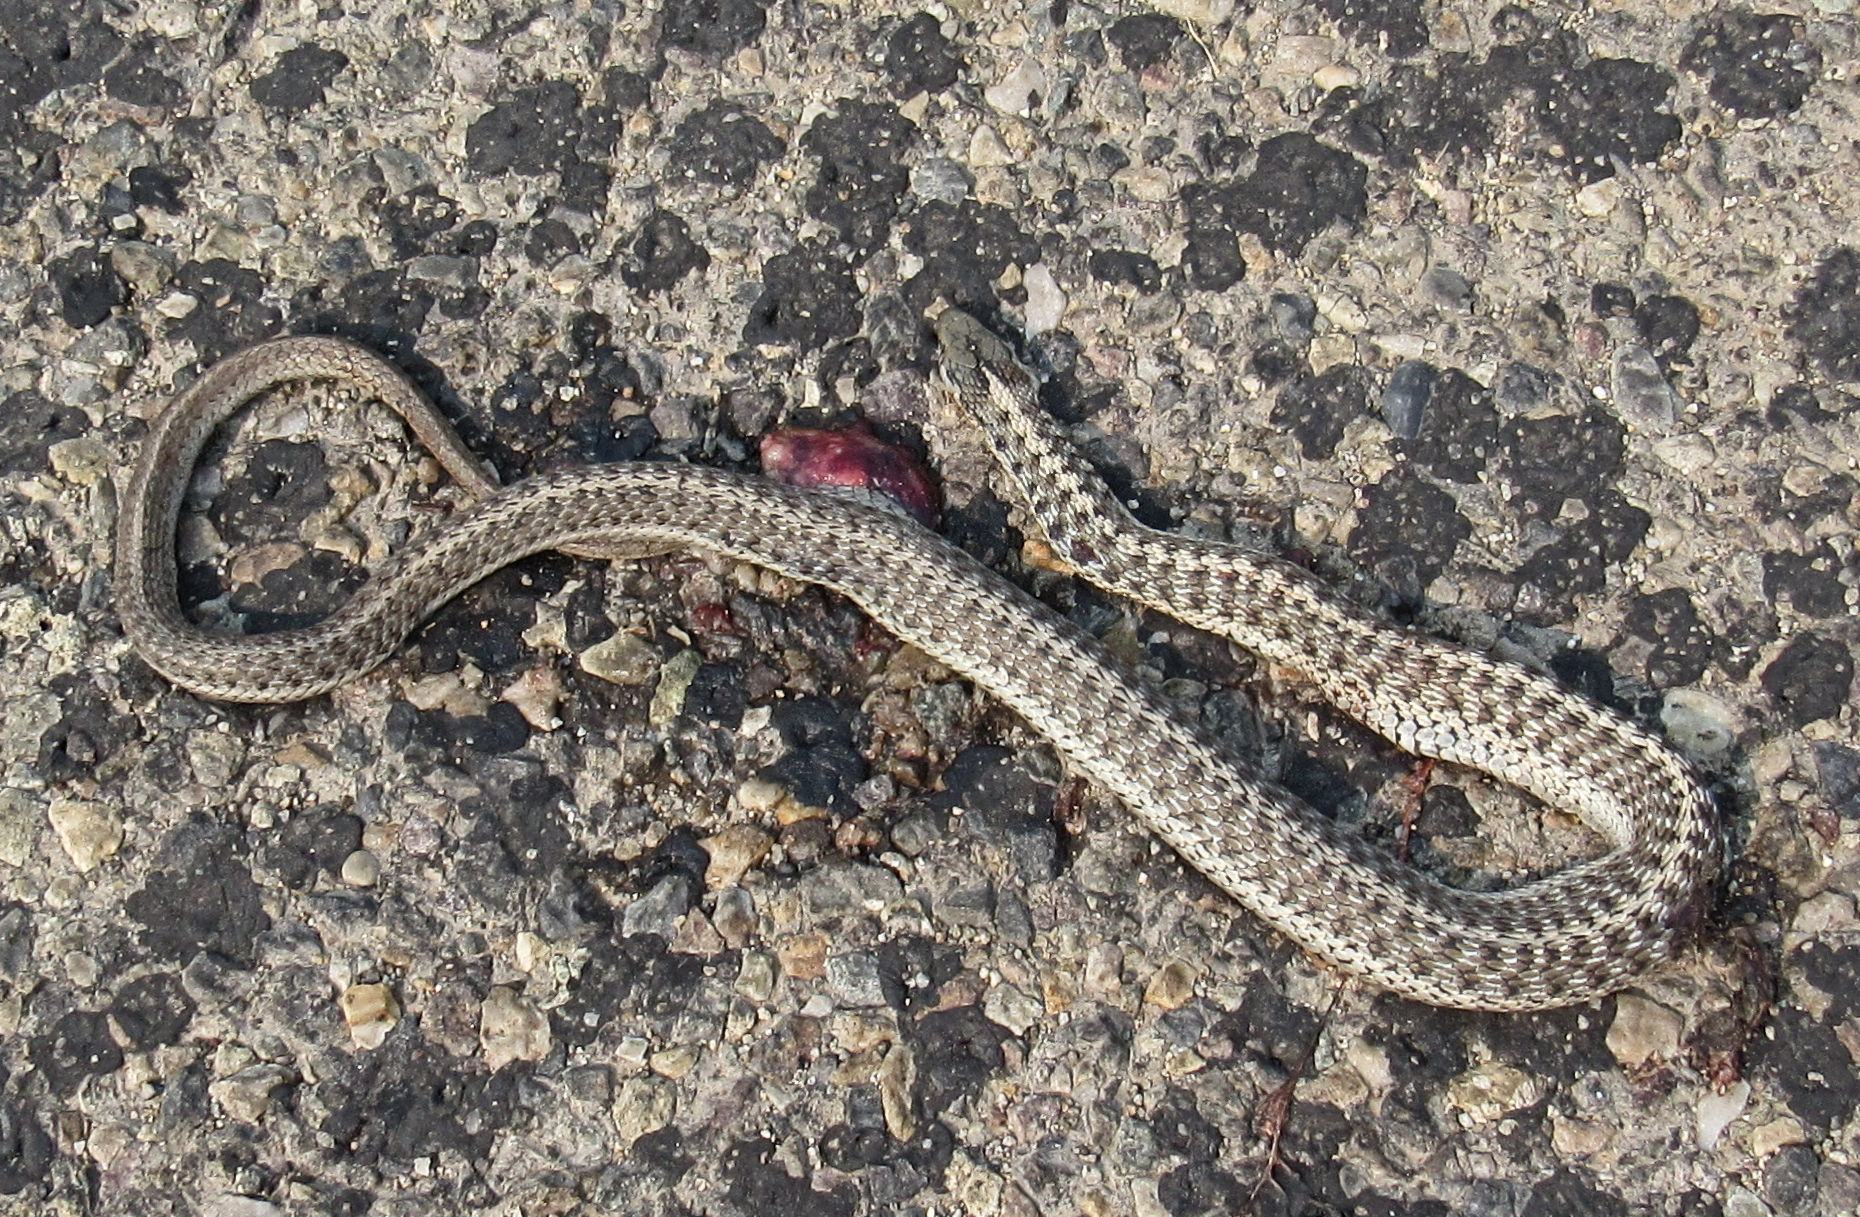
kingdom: Animalia
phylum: Chordata
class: Squamata
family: Colubridae
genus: Thamnophis
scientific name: Thamnophis elegans
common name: Western terrestrial garter snake
